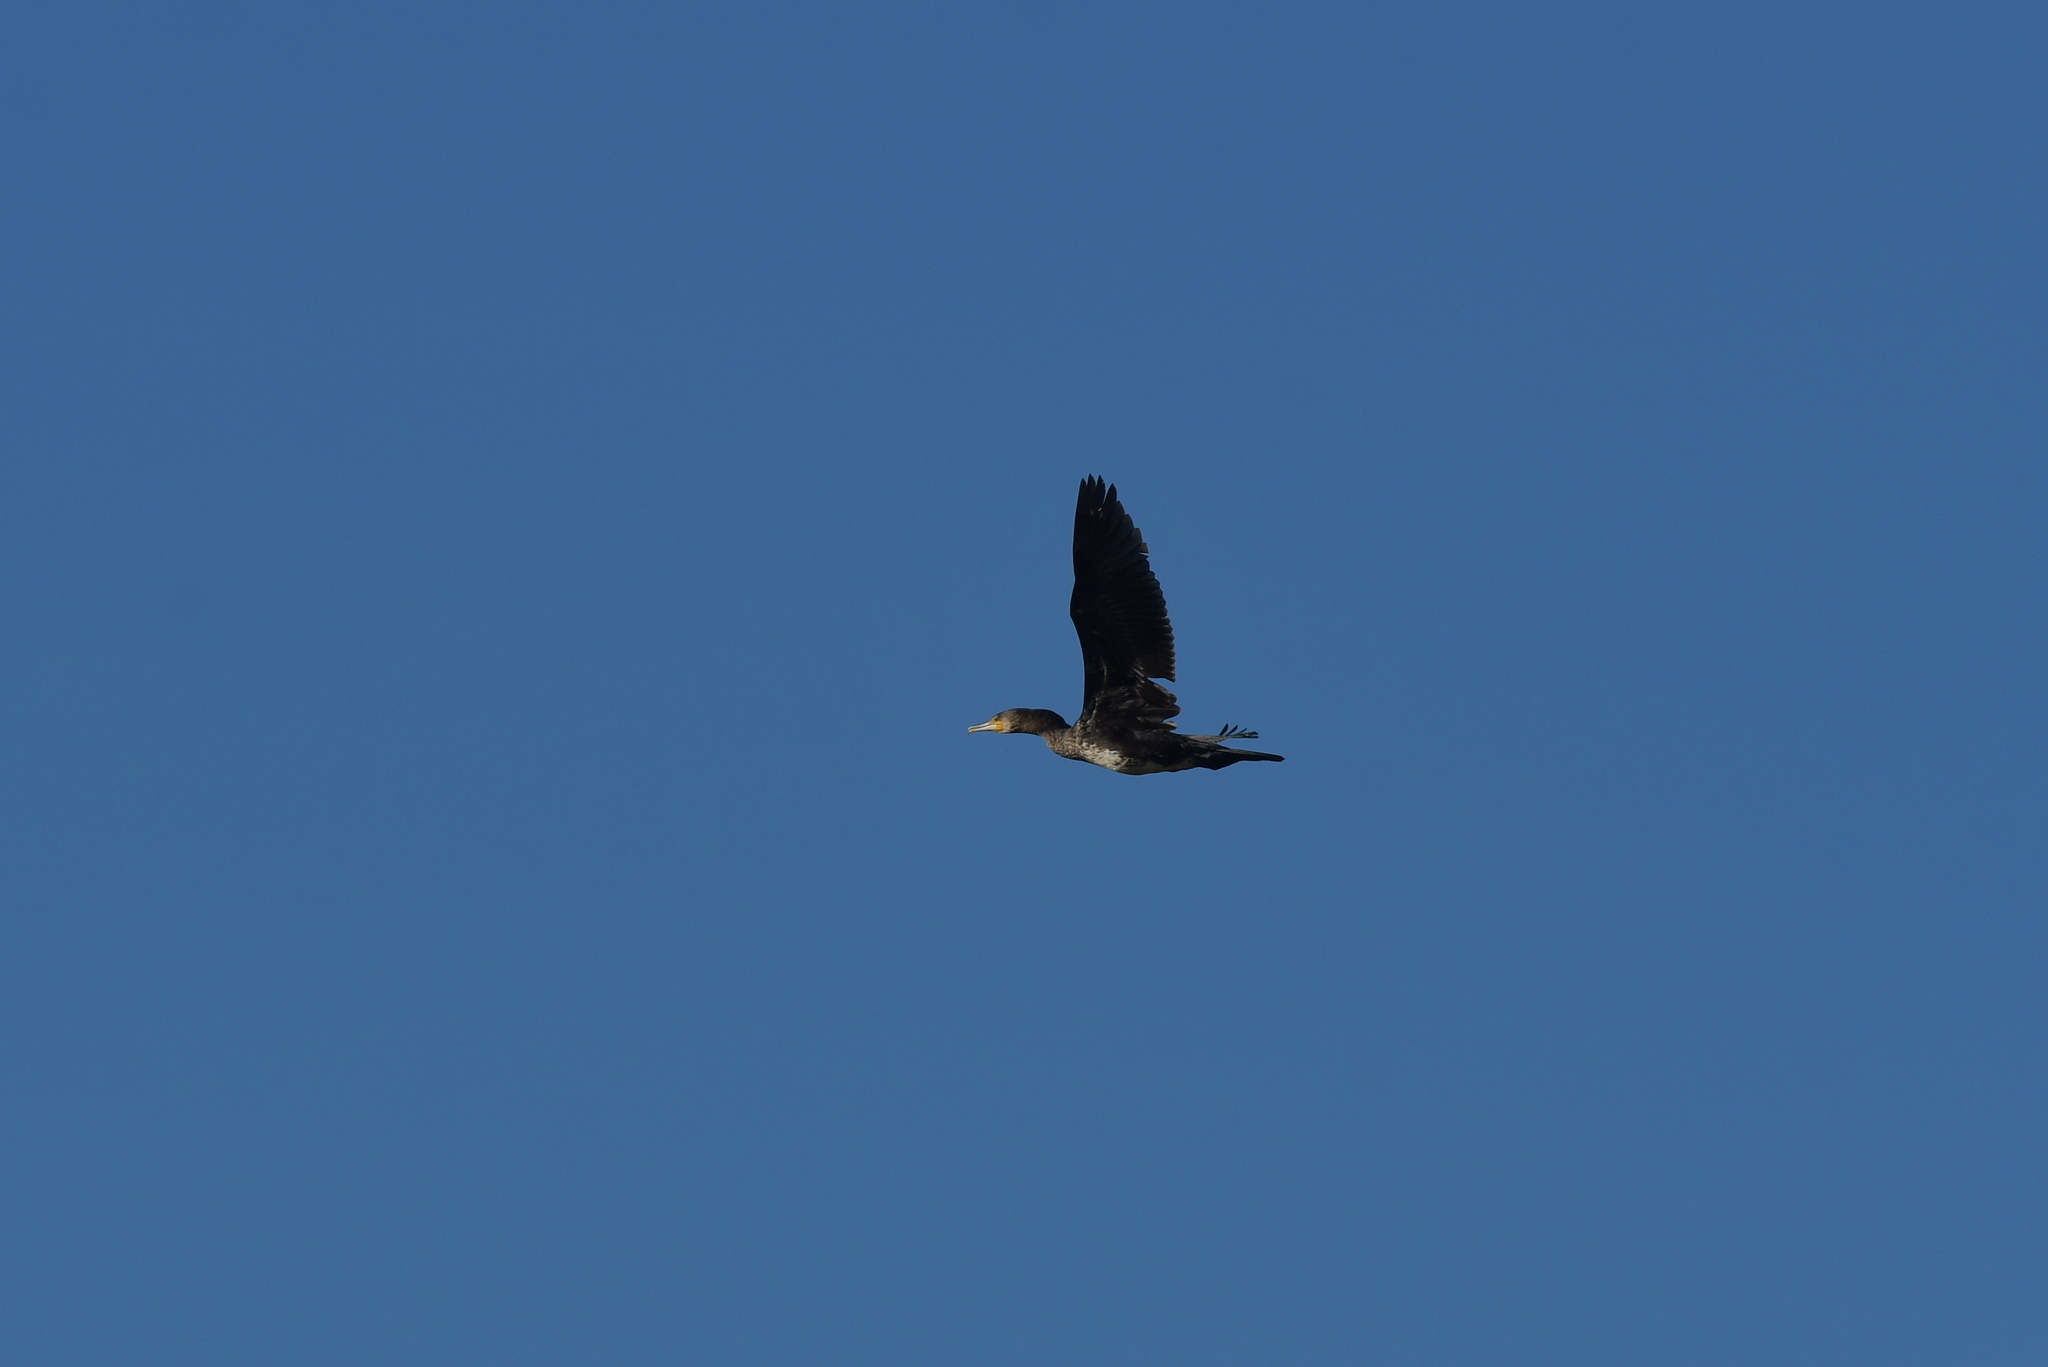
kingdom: Animalia
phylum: Chordata
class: Aves
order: Suliformes
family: Phalacrocoracidae
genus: Phalacrocorax
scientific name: Phalacrocorax carbo
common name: Great cormorant
